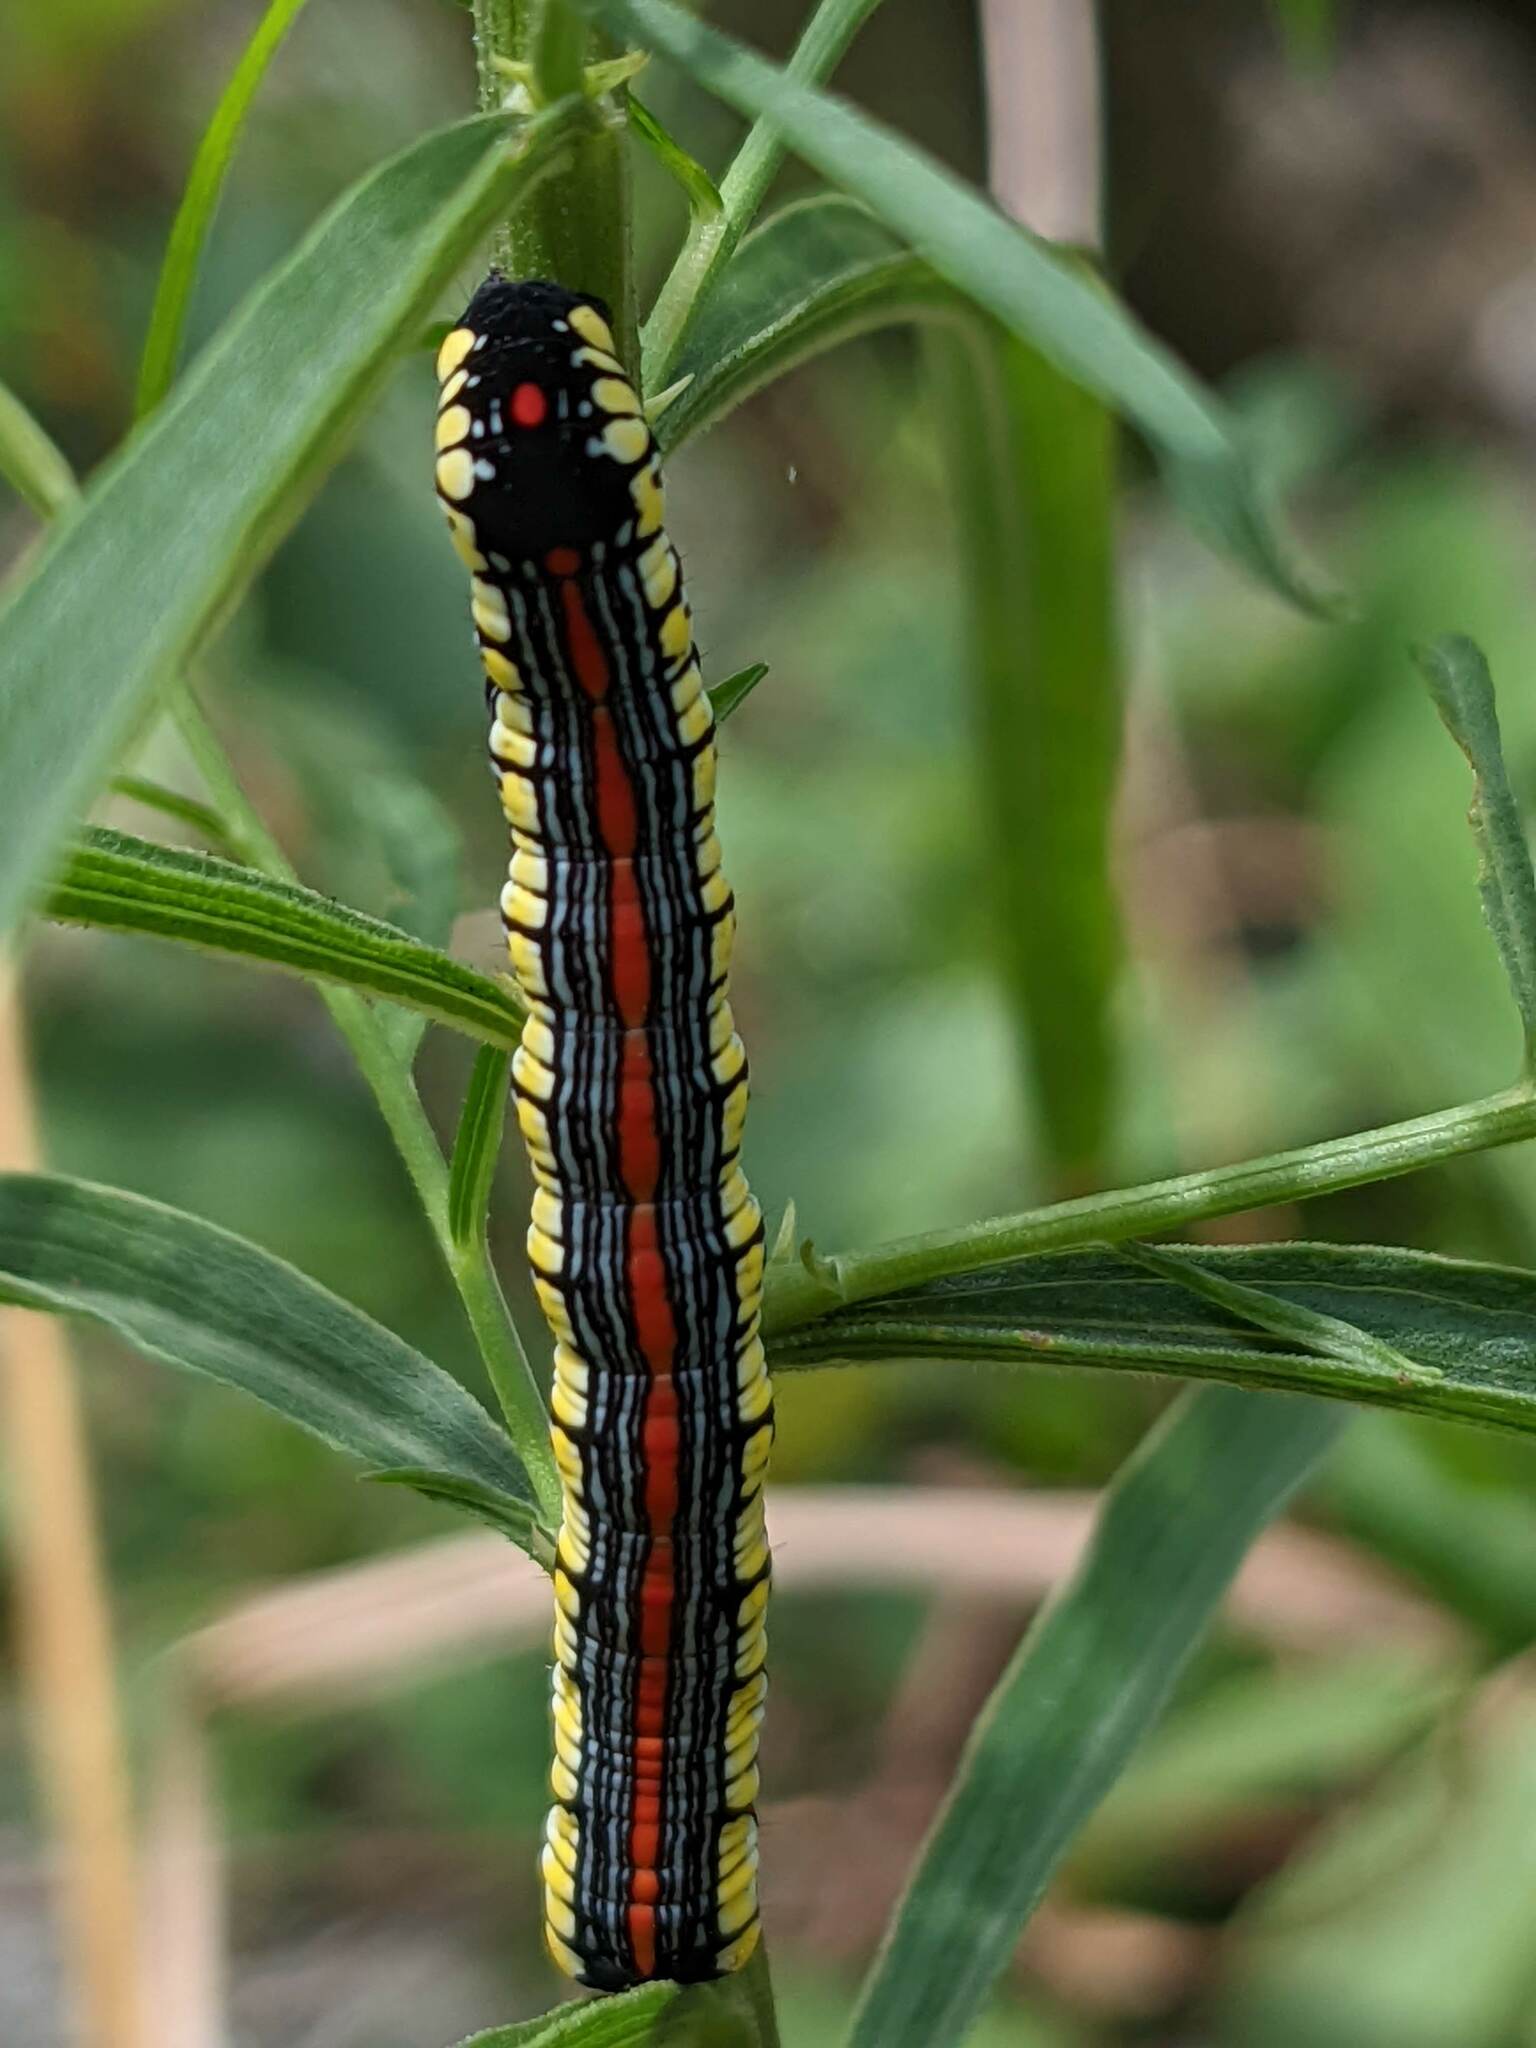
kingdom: Animalia
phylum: Arthropoda
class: Insecta
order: Lepidoptera
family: Noctuidae
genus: Cucullia
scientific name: Cucullia convexipennis
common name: Brown-hooded owlet
